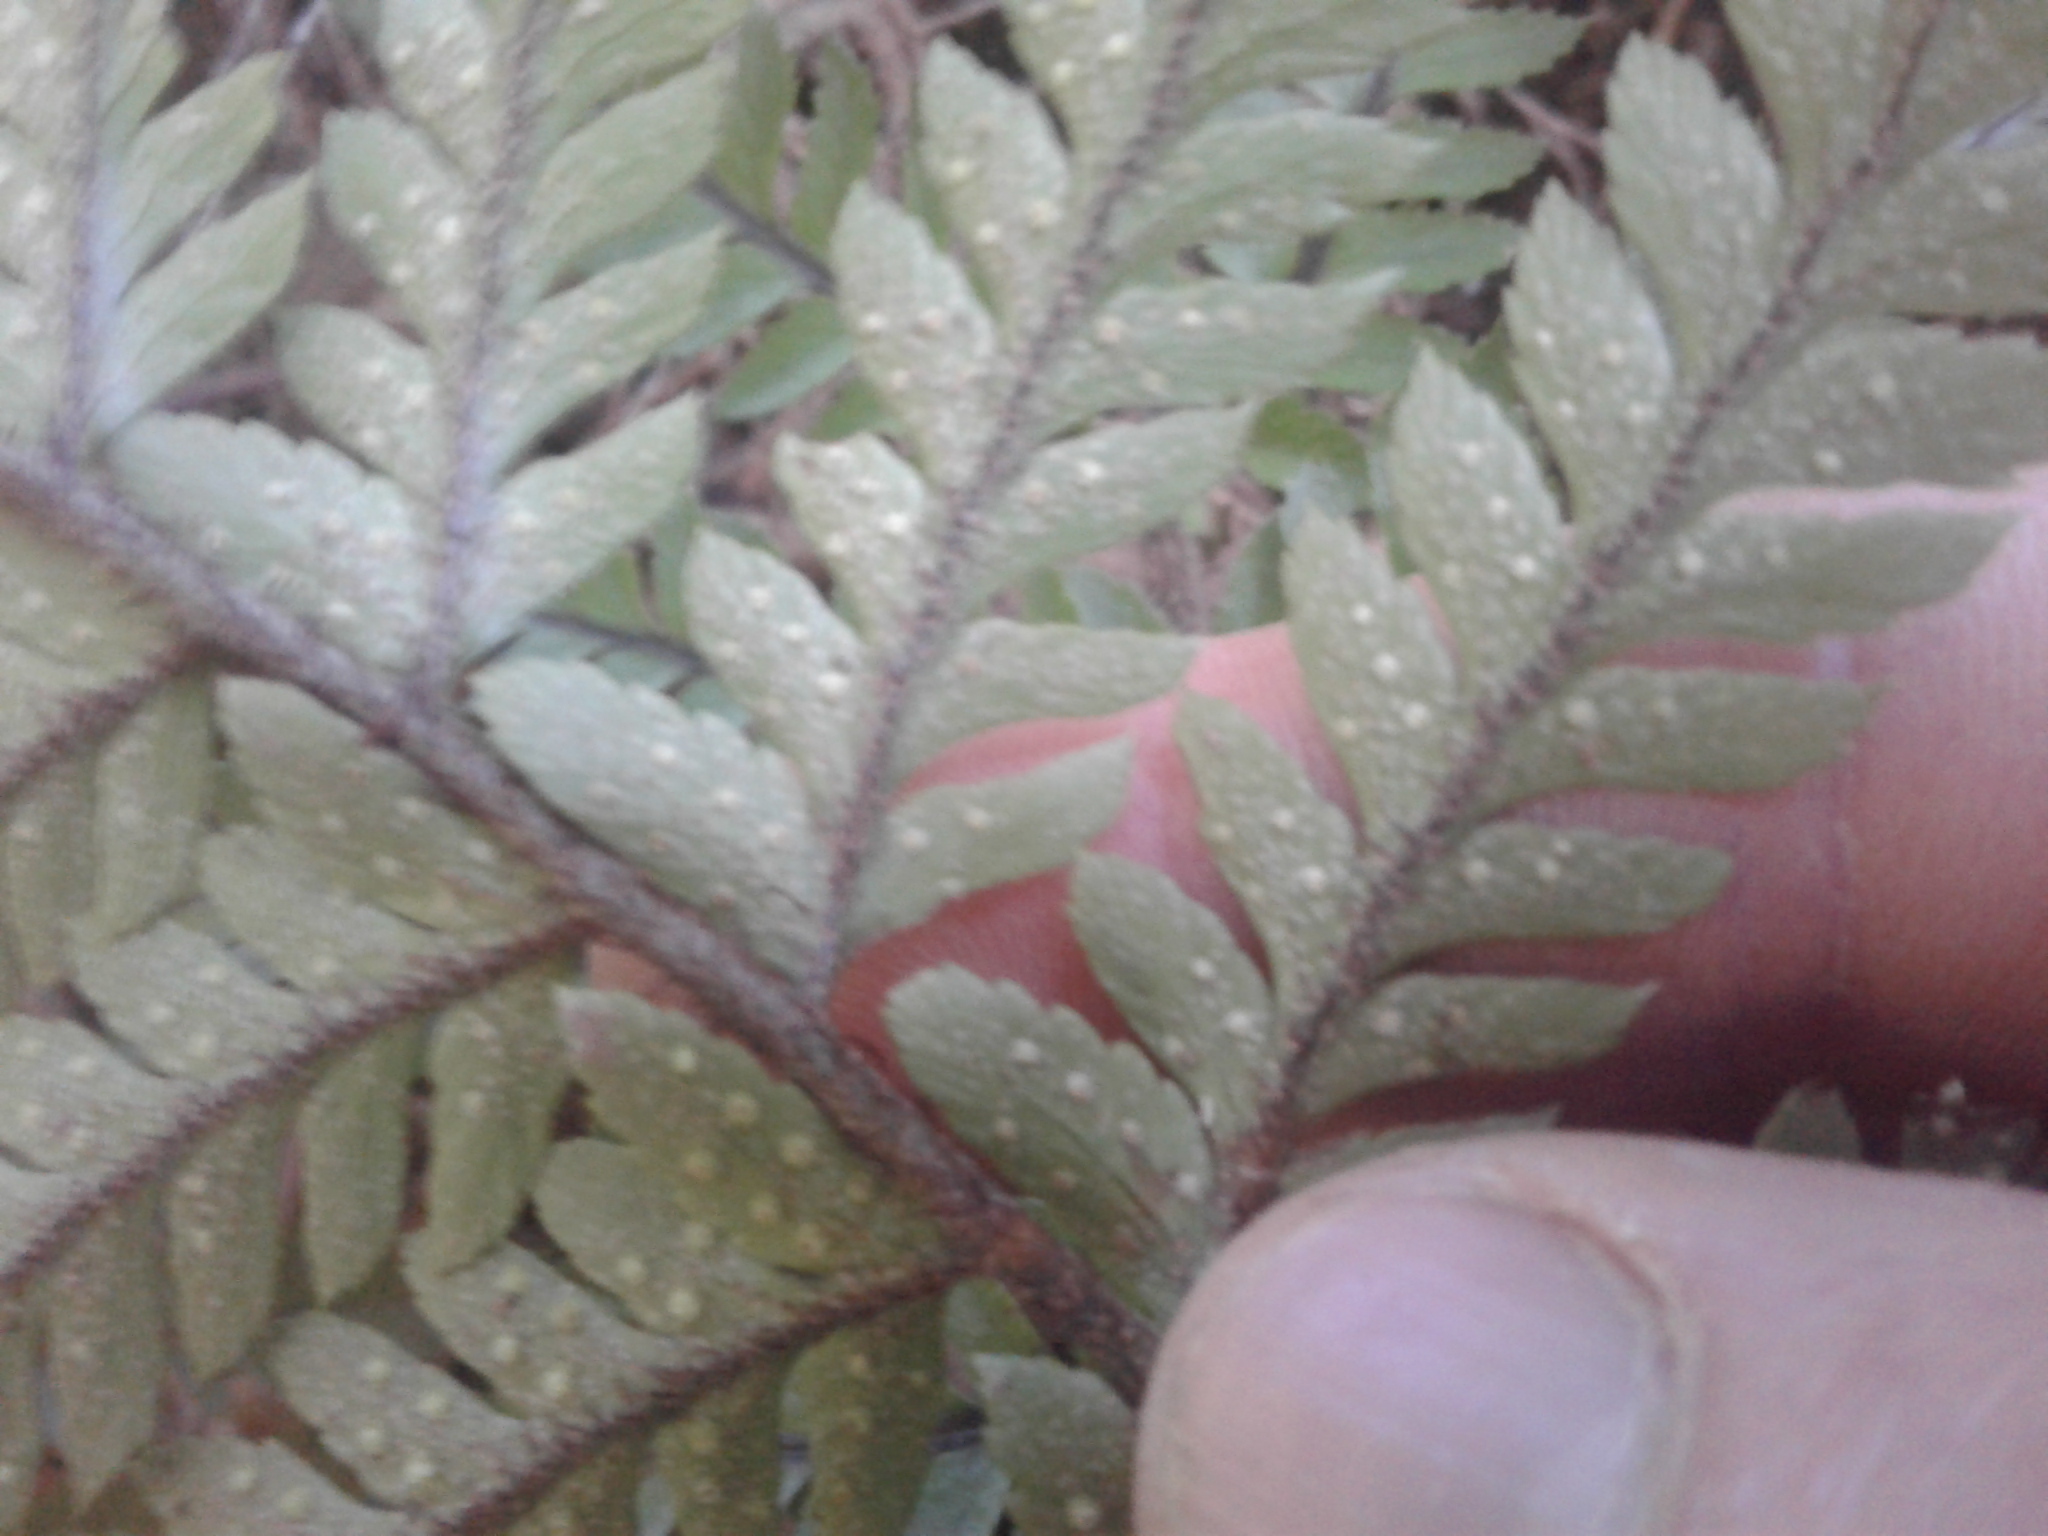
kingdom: Plantae
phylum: Tracheophyta
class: Polypodiopsida
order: Polypodiales
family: Dryopteridaceae
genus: Polystichum
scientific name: Polystichum wawranum
